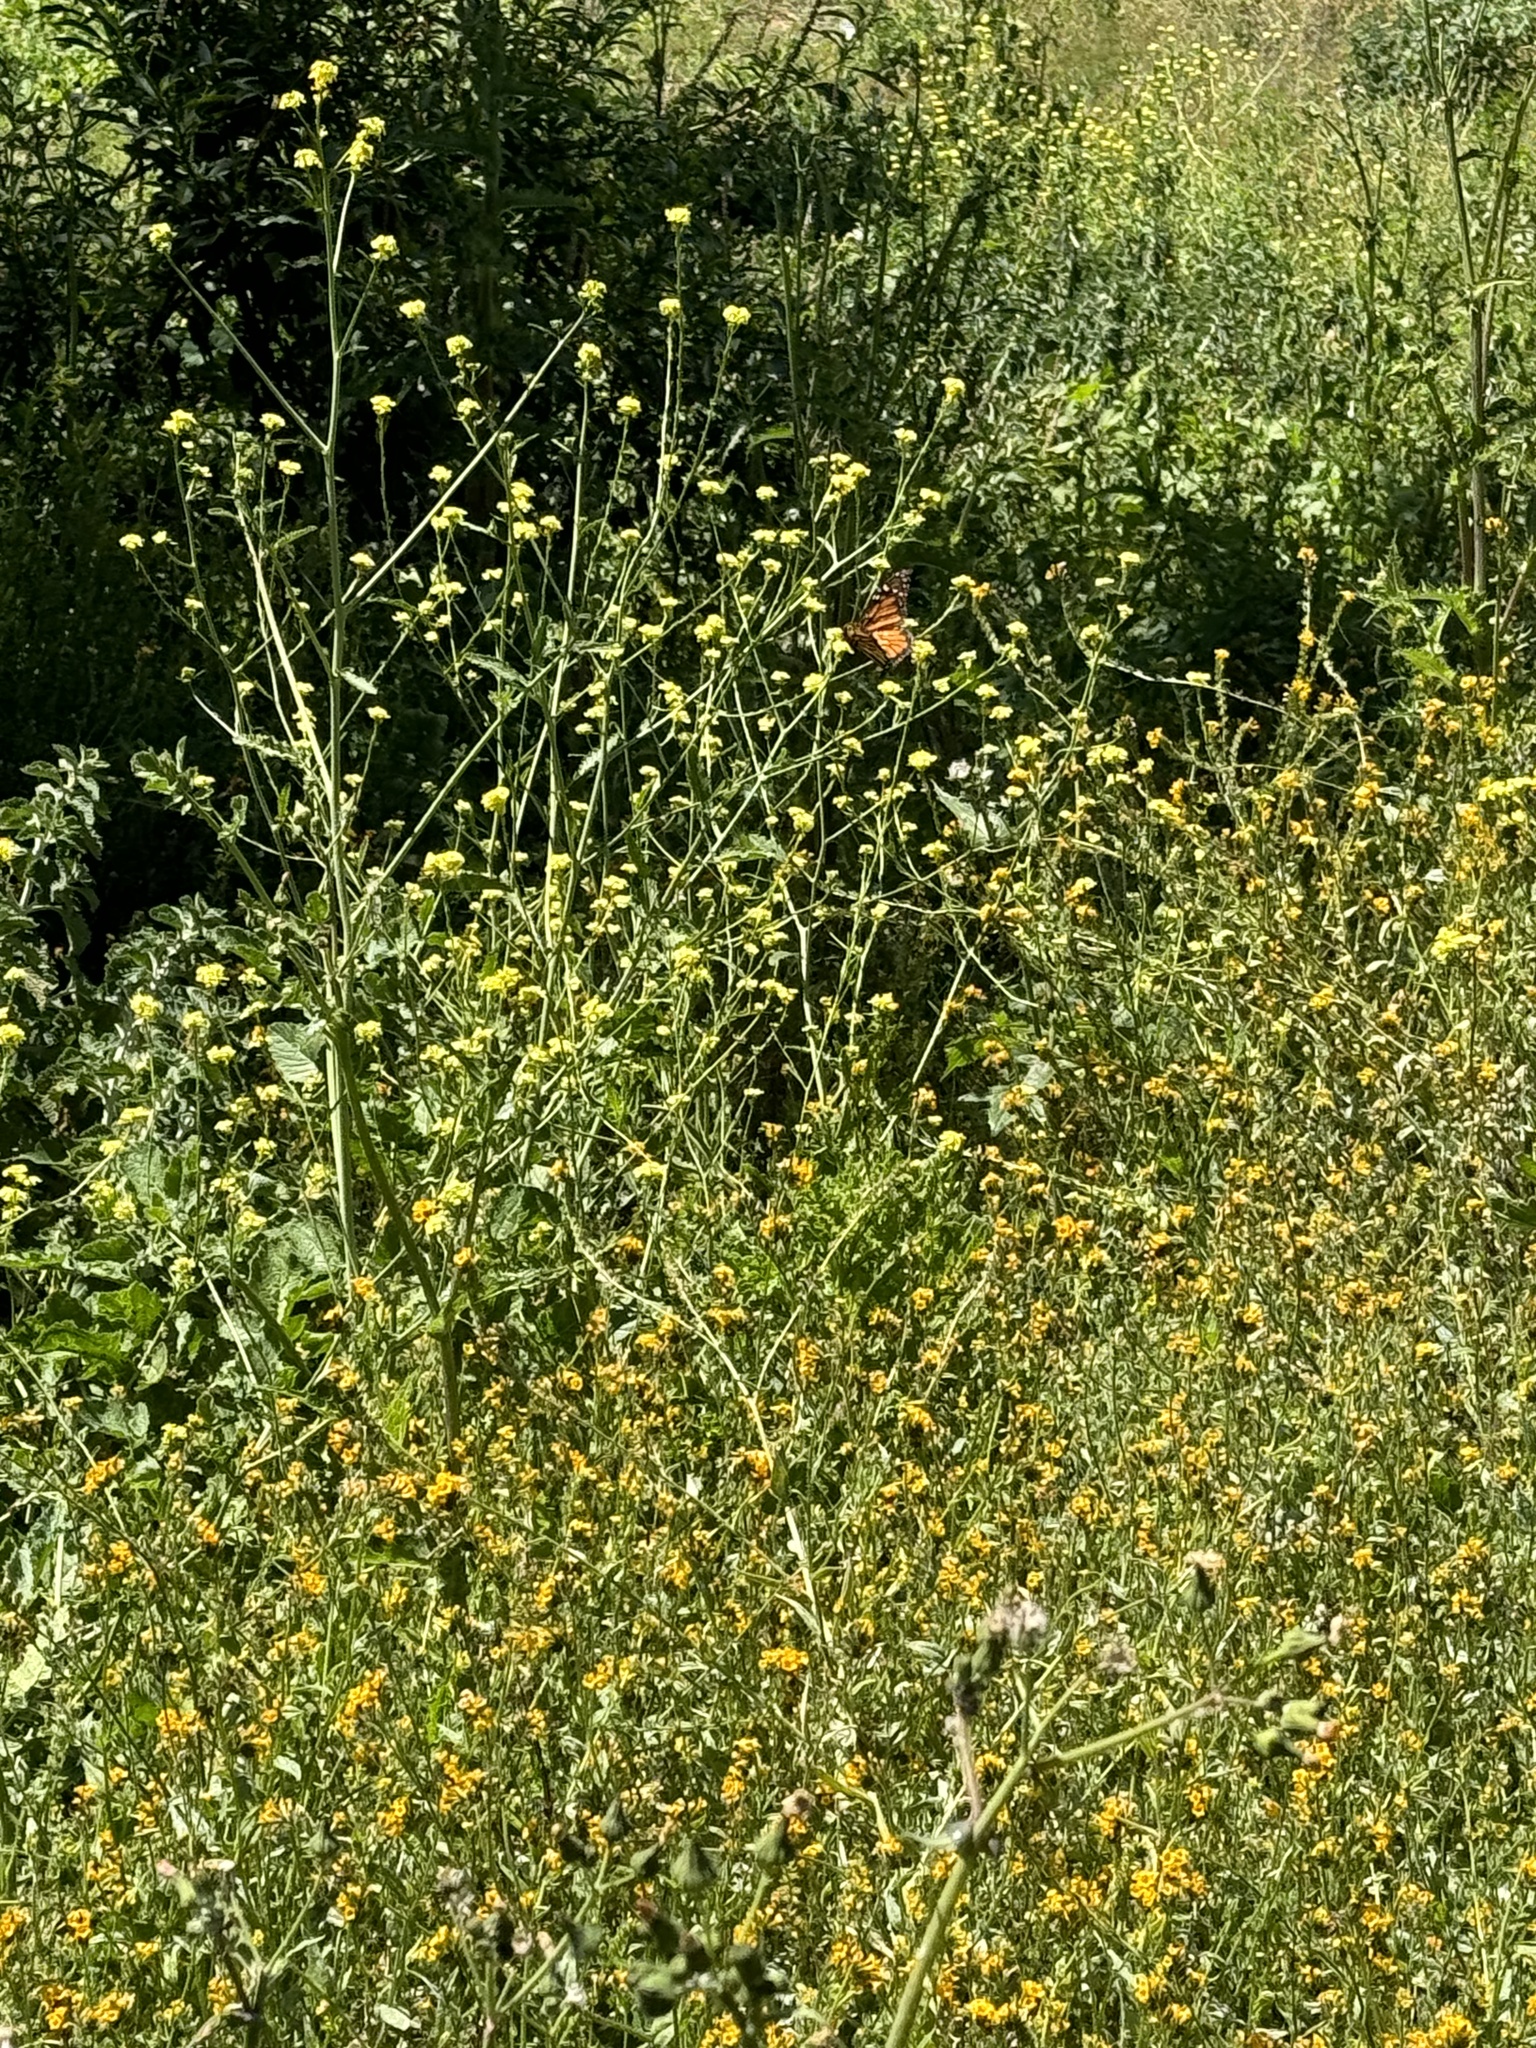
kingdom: Animalia
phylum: Arthropoda
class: Insecta
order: Lepidoptera
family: Nymphalidae
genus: Danaus
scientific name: Danaus plexippus
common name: Monarch
